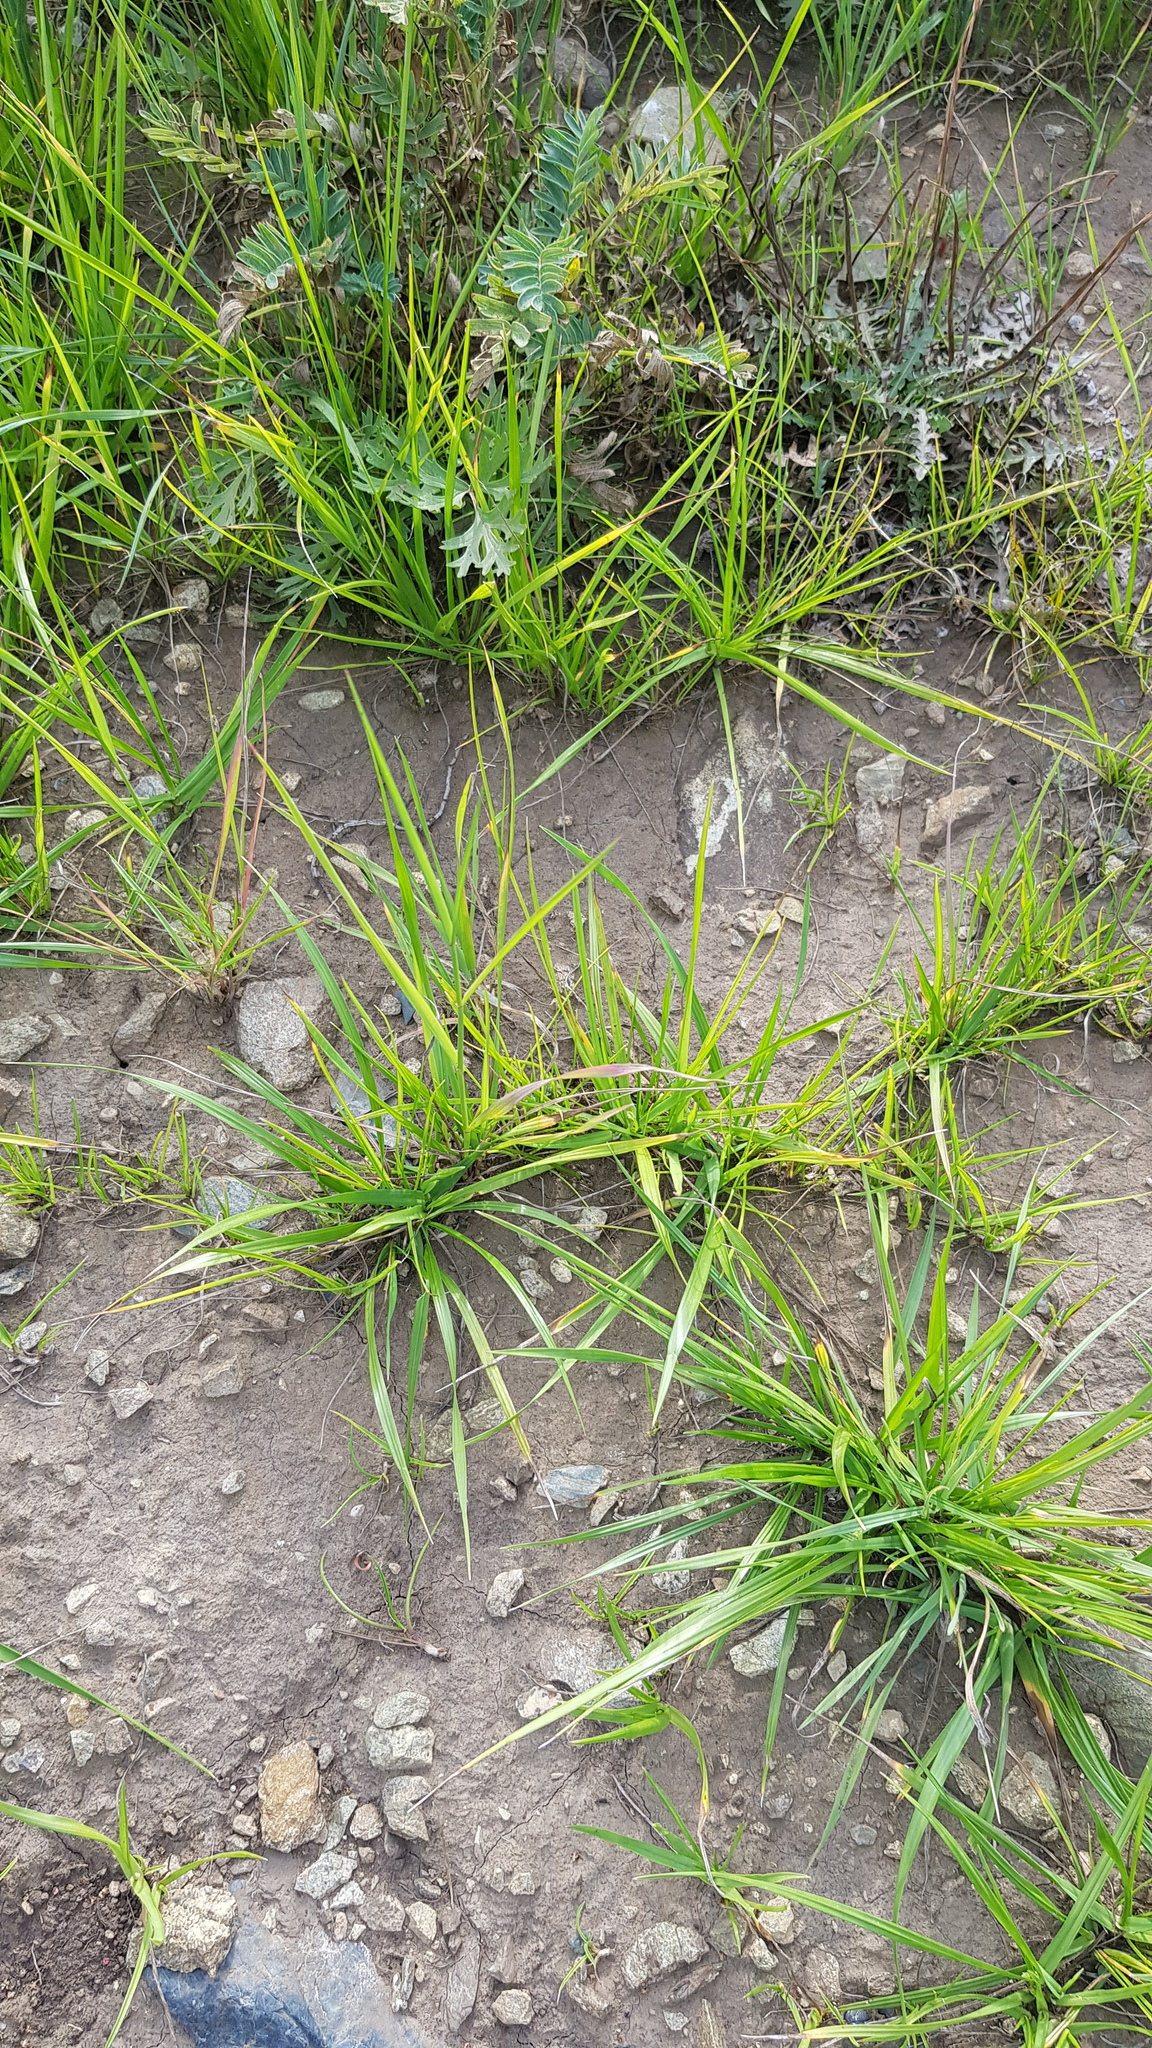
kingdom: Plantae
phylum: Tracheophyta
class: Liliopsida
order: Poales
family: Poaceae
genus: Cleistogenes
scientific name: Cleistogenes squarrosa
